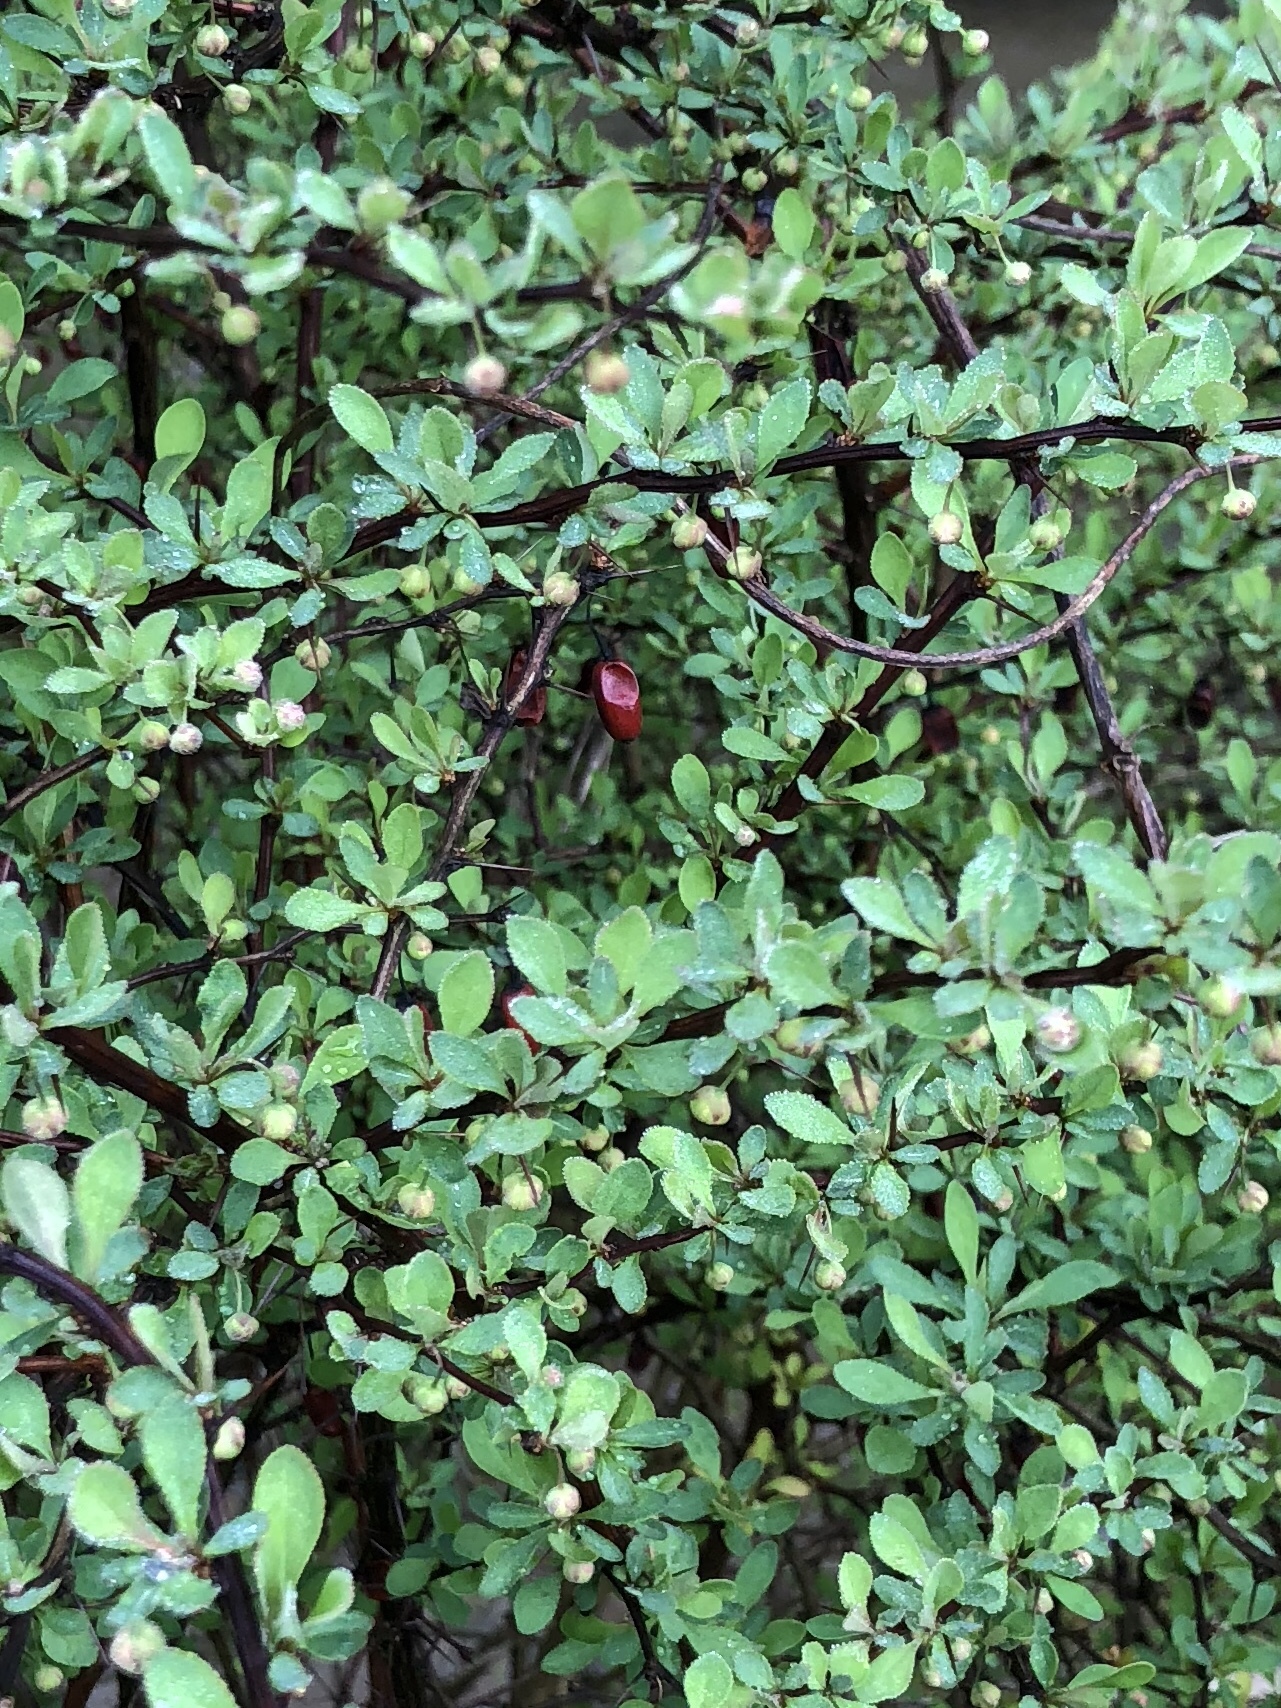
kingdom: Plantae
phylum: Tracheophyta
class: Magnoliopsida
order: Ranunculales
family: Berberidaceae
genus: Berberis
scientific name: Berberis thunbergii
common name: Japanese barberry
